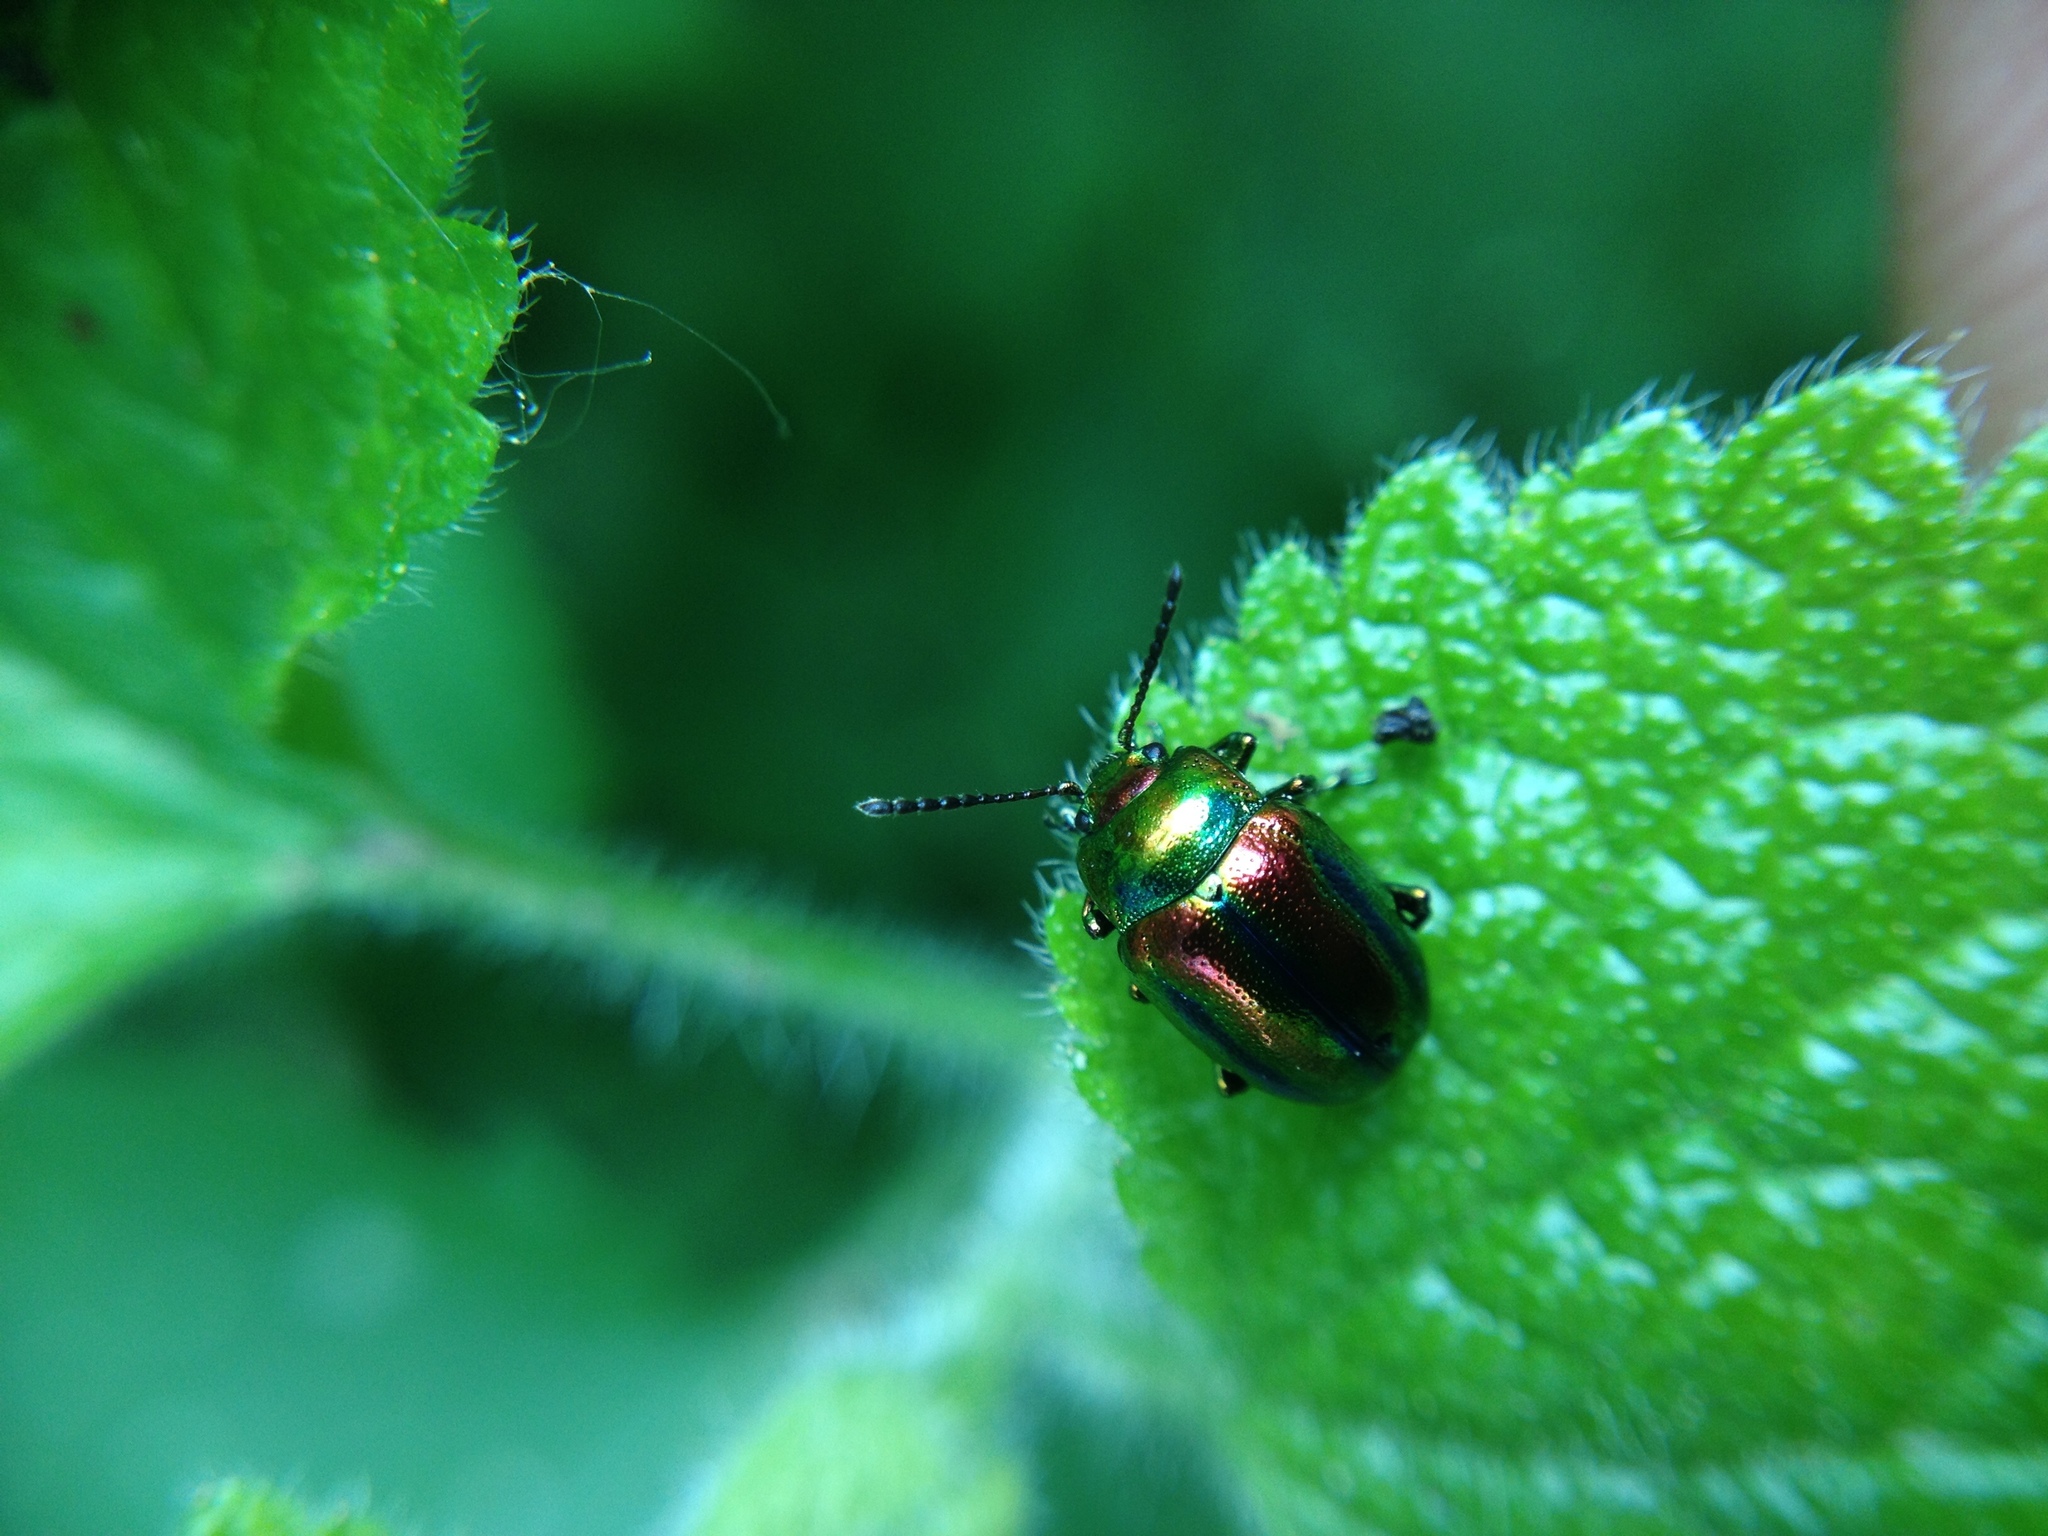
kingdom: Animalia
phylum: Arthropoda
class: Insecta
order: Coleoptera
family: Chrysomelidae
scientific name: Chrysomelidae
